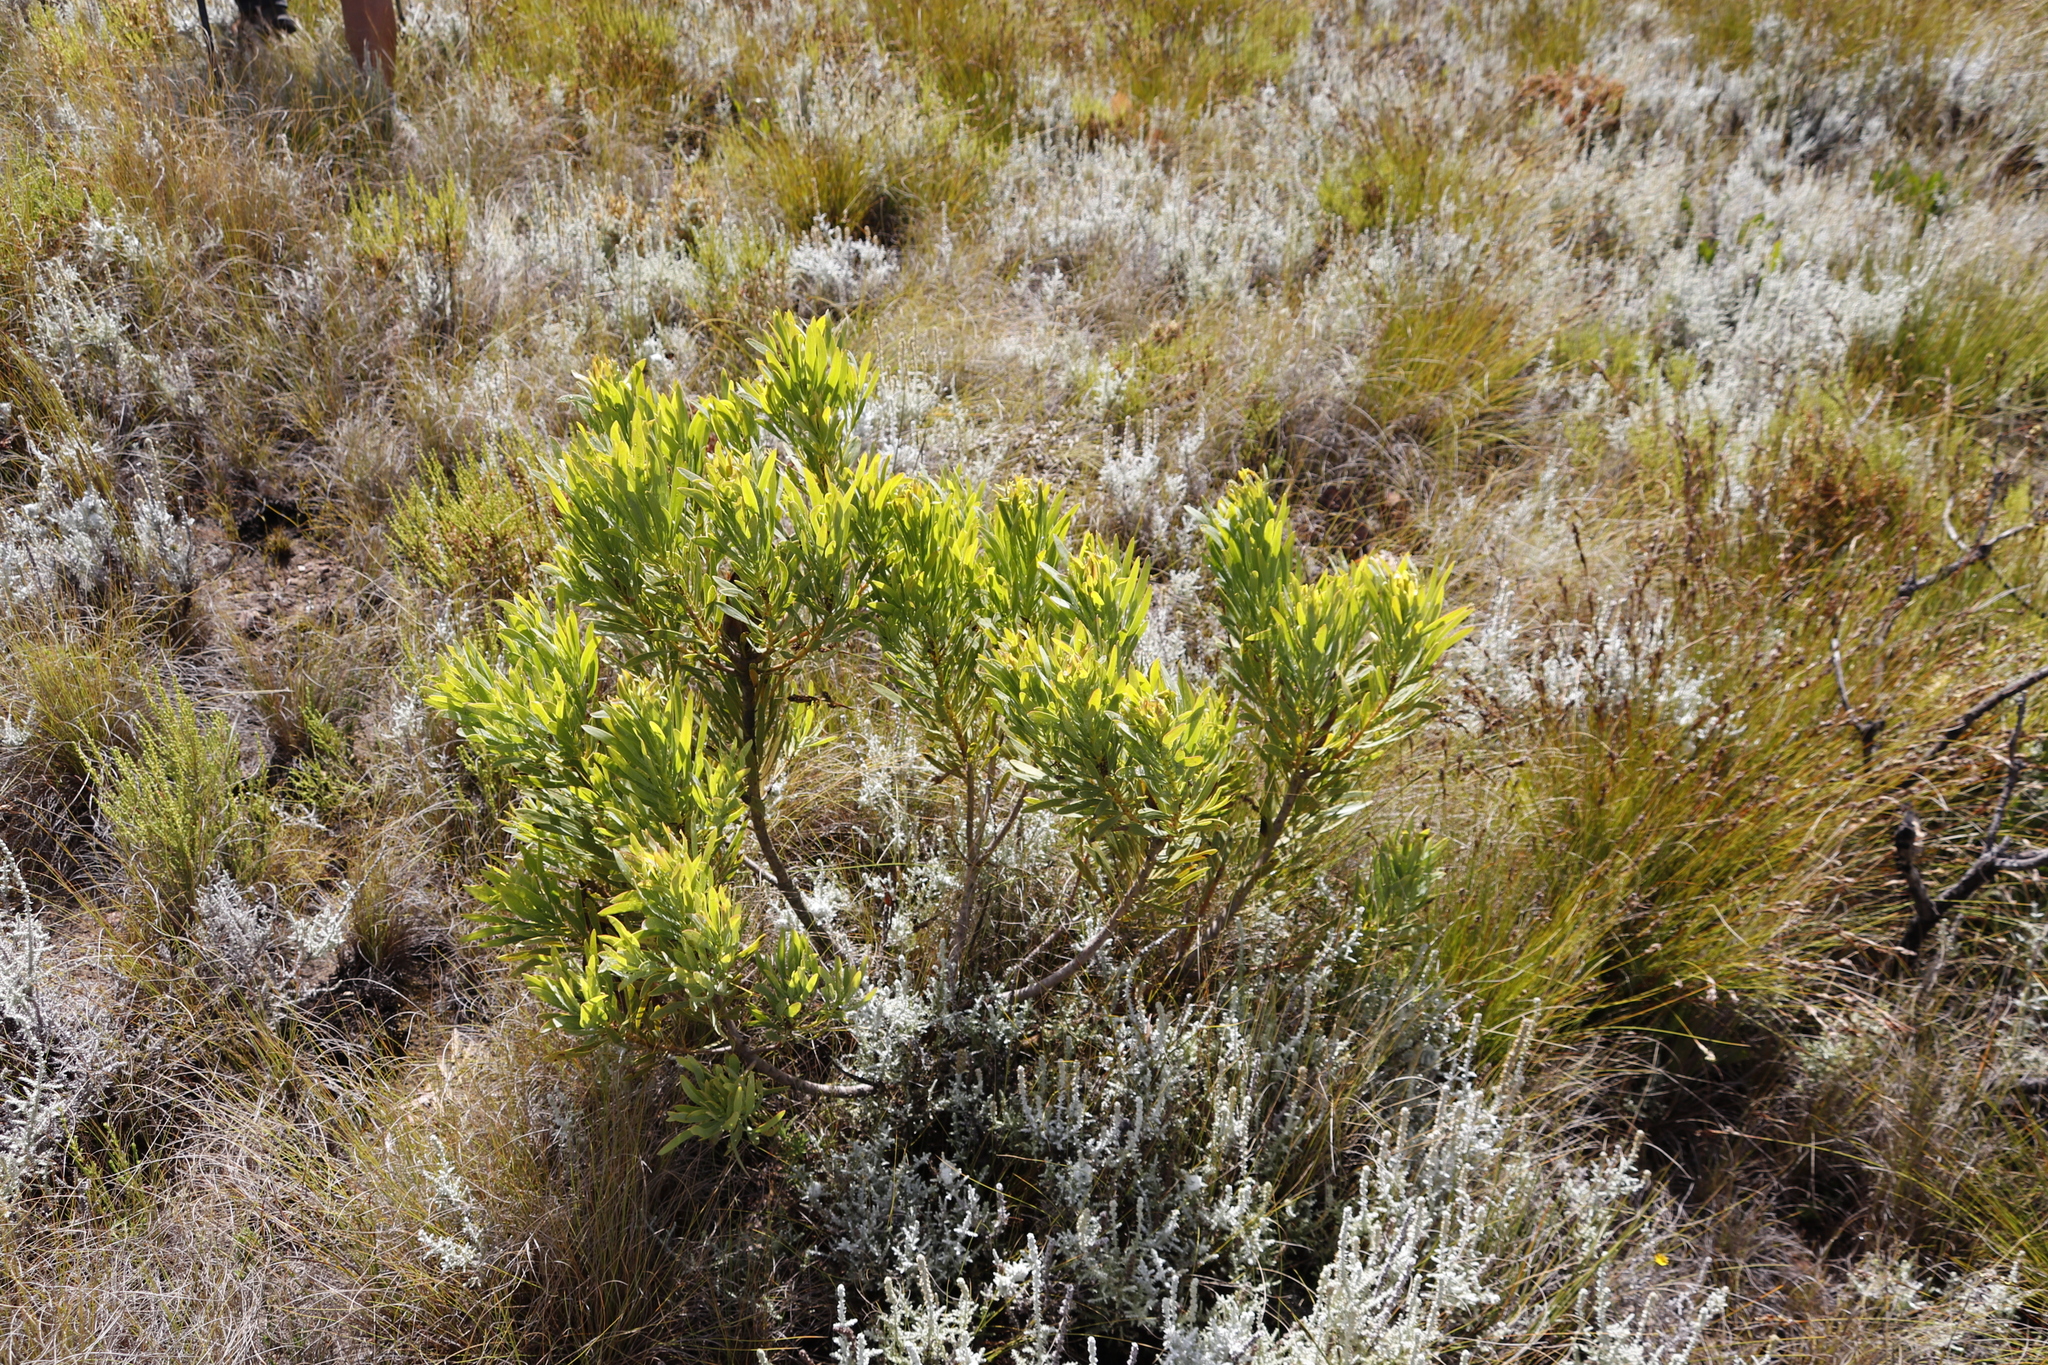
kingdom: Plantae
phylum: Tracheophyta
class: Magnoliopsida
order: Proteales
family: Proteaceae
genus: Protea
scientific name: Protea repens
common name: Sugarbush
